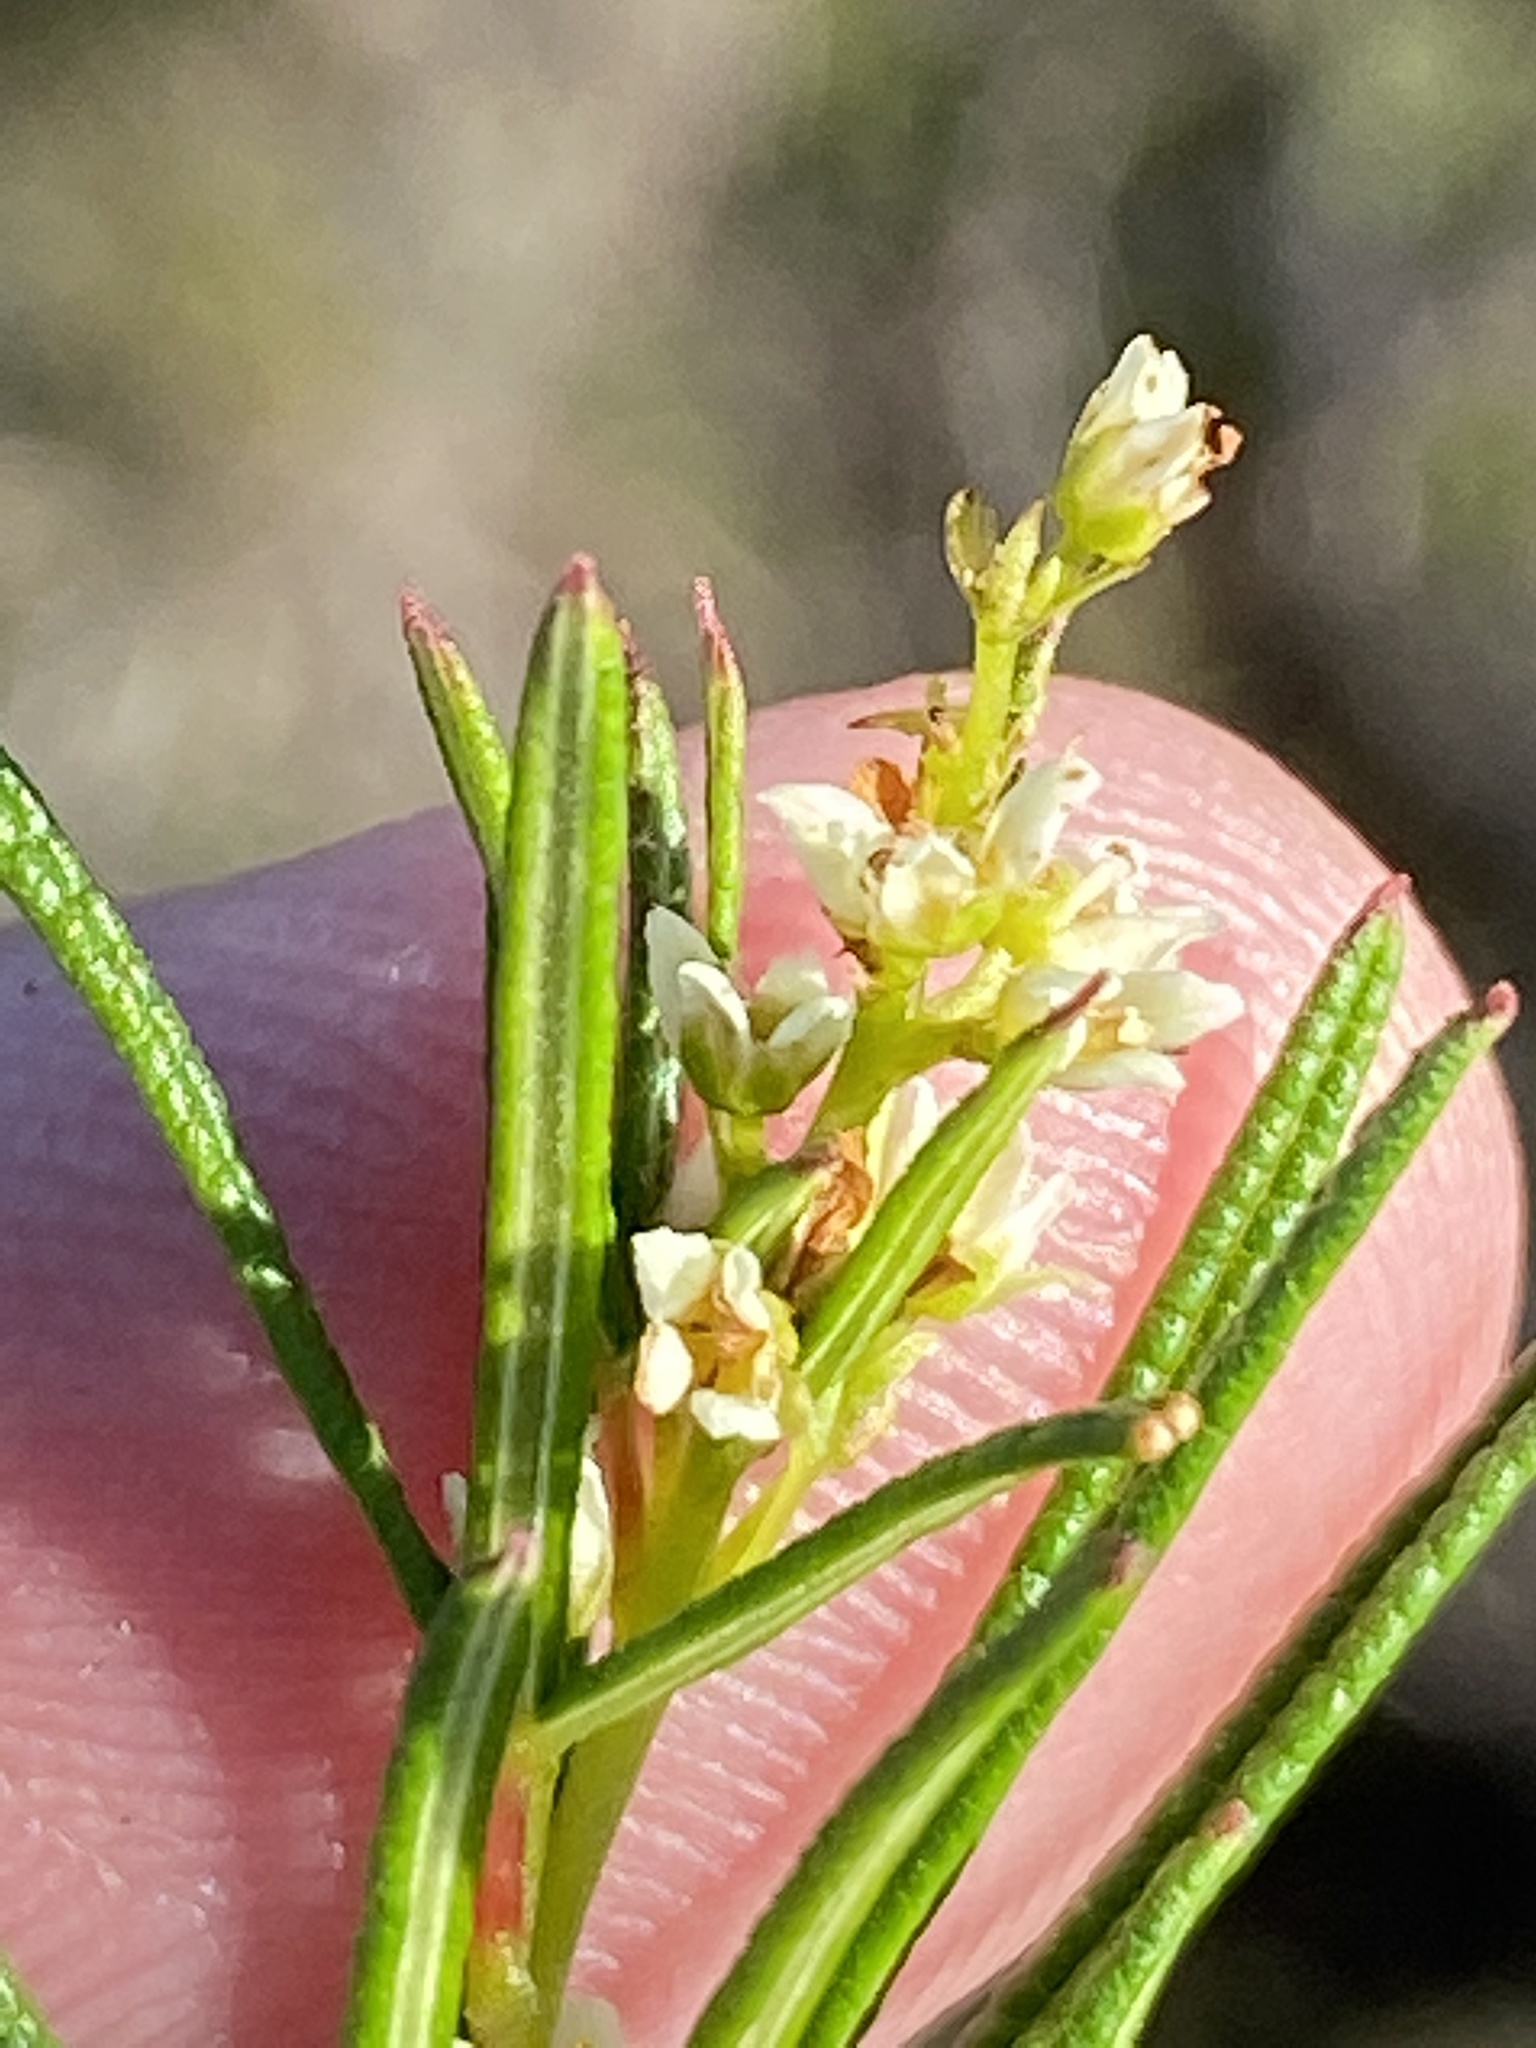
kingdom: Plantae
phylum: Tracheophyta
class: Magnoliopsida
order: Sapindales
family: Anacardiaceae
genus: Searsia
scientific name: Searsia rosmarinifolia
